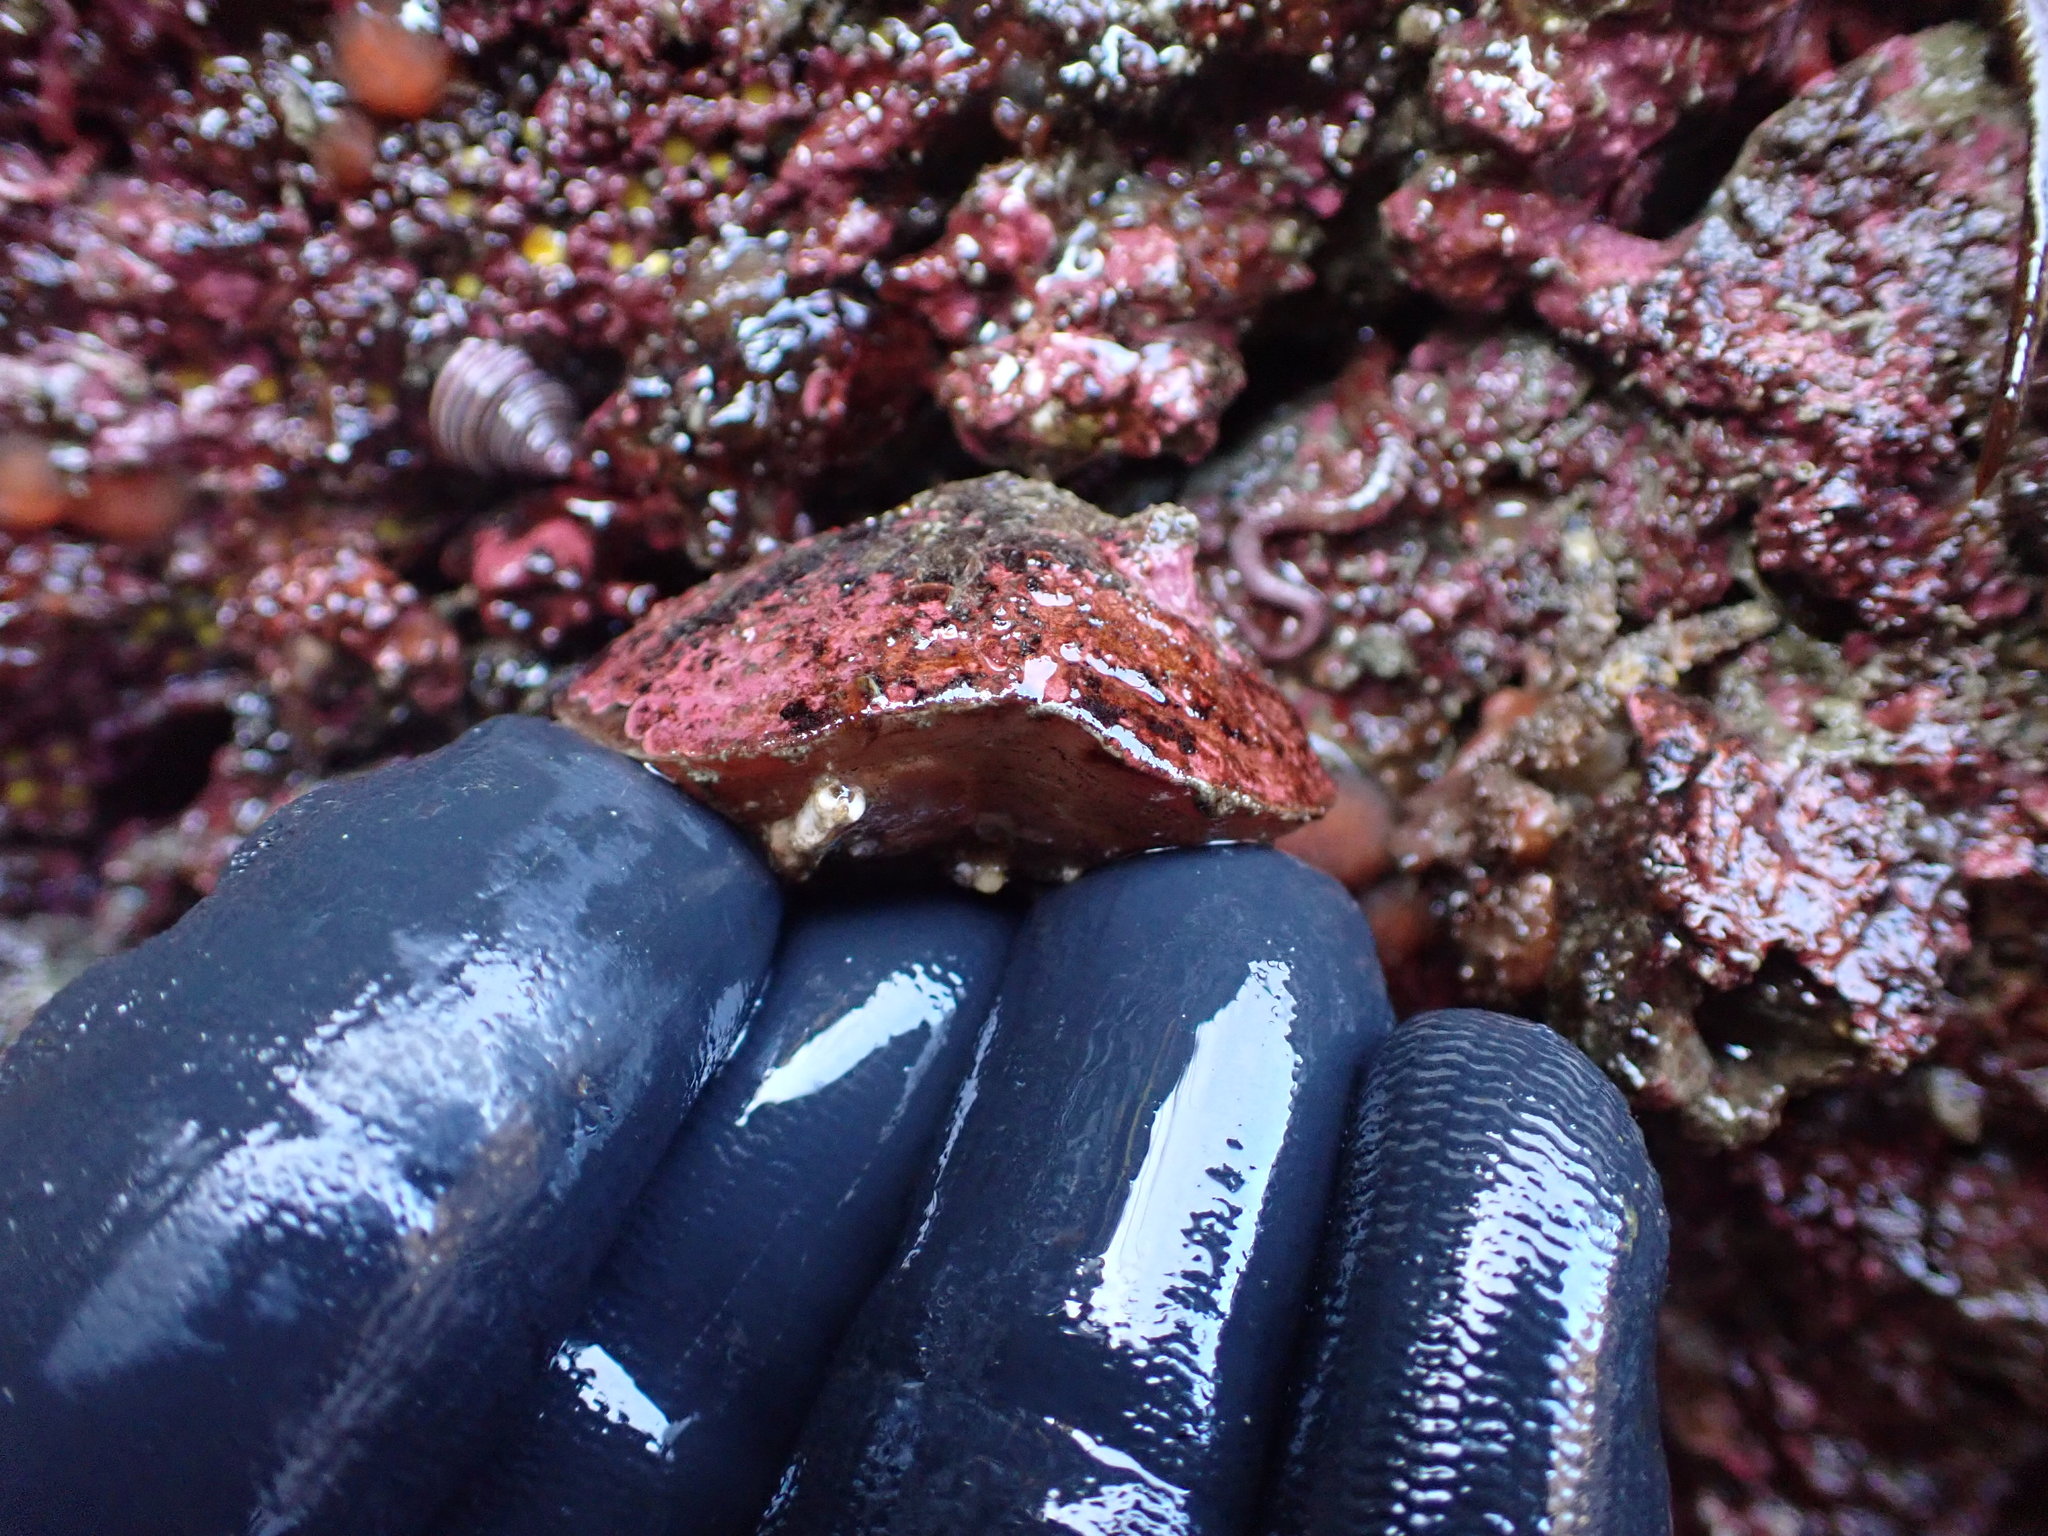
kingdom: Animalia
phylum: Brachiopoda
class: Rhynchonellata
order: Terebratulida
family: Terebrataliidae
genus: Terebratalia
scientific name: Terebratalia transversa
